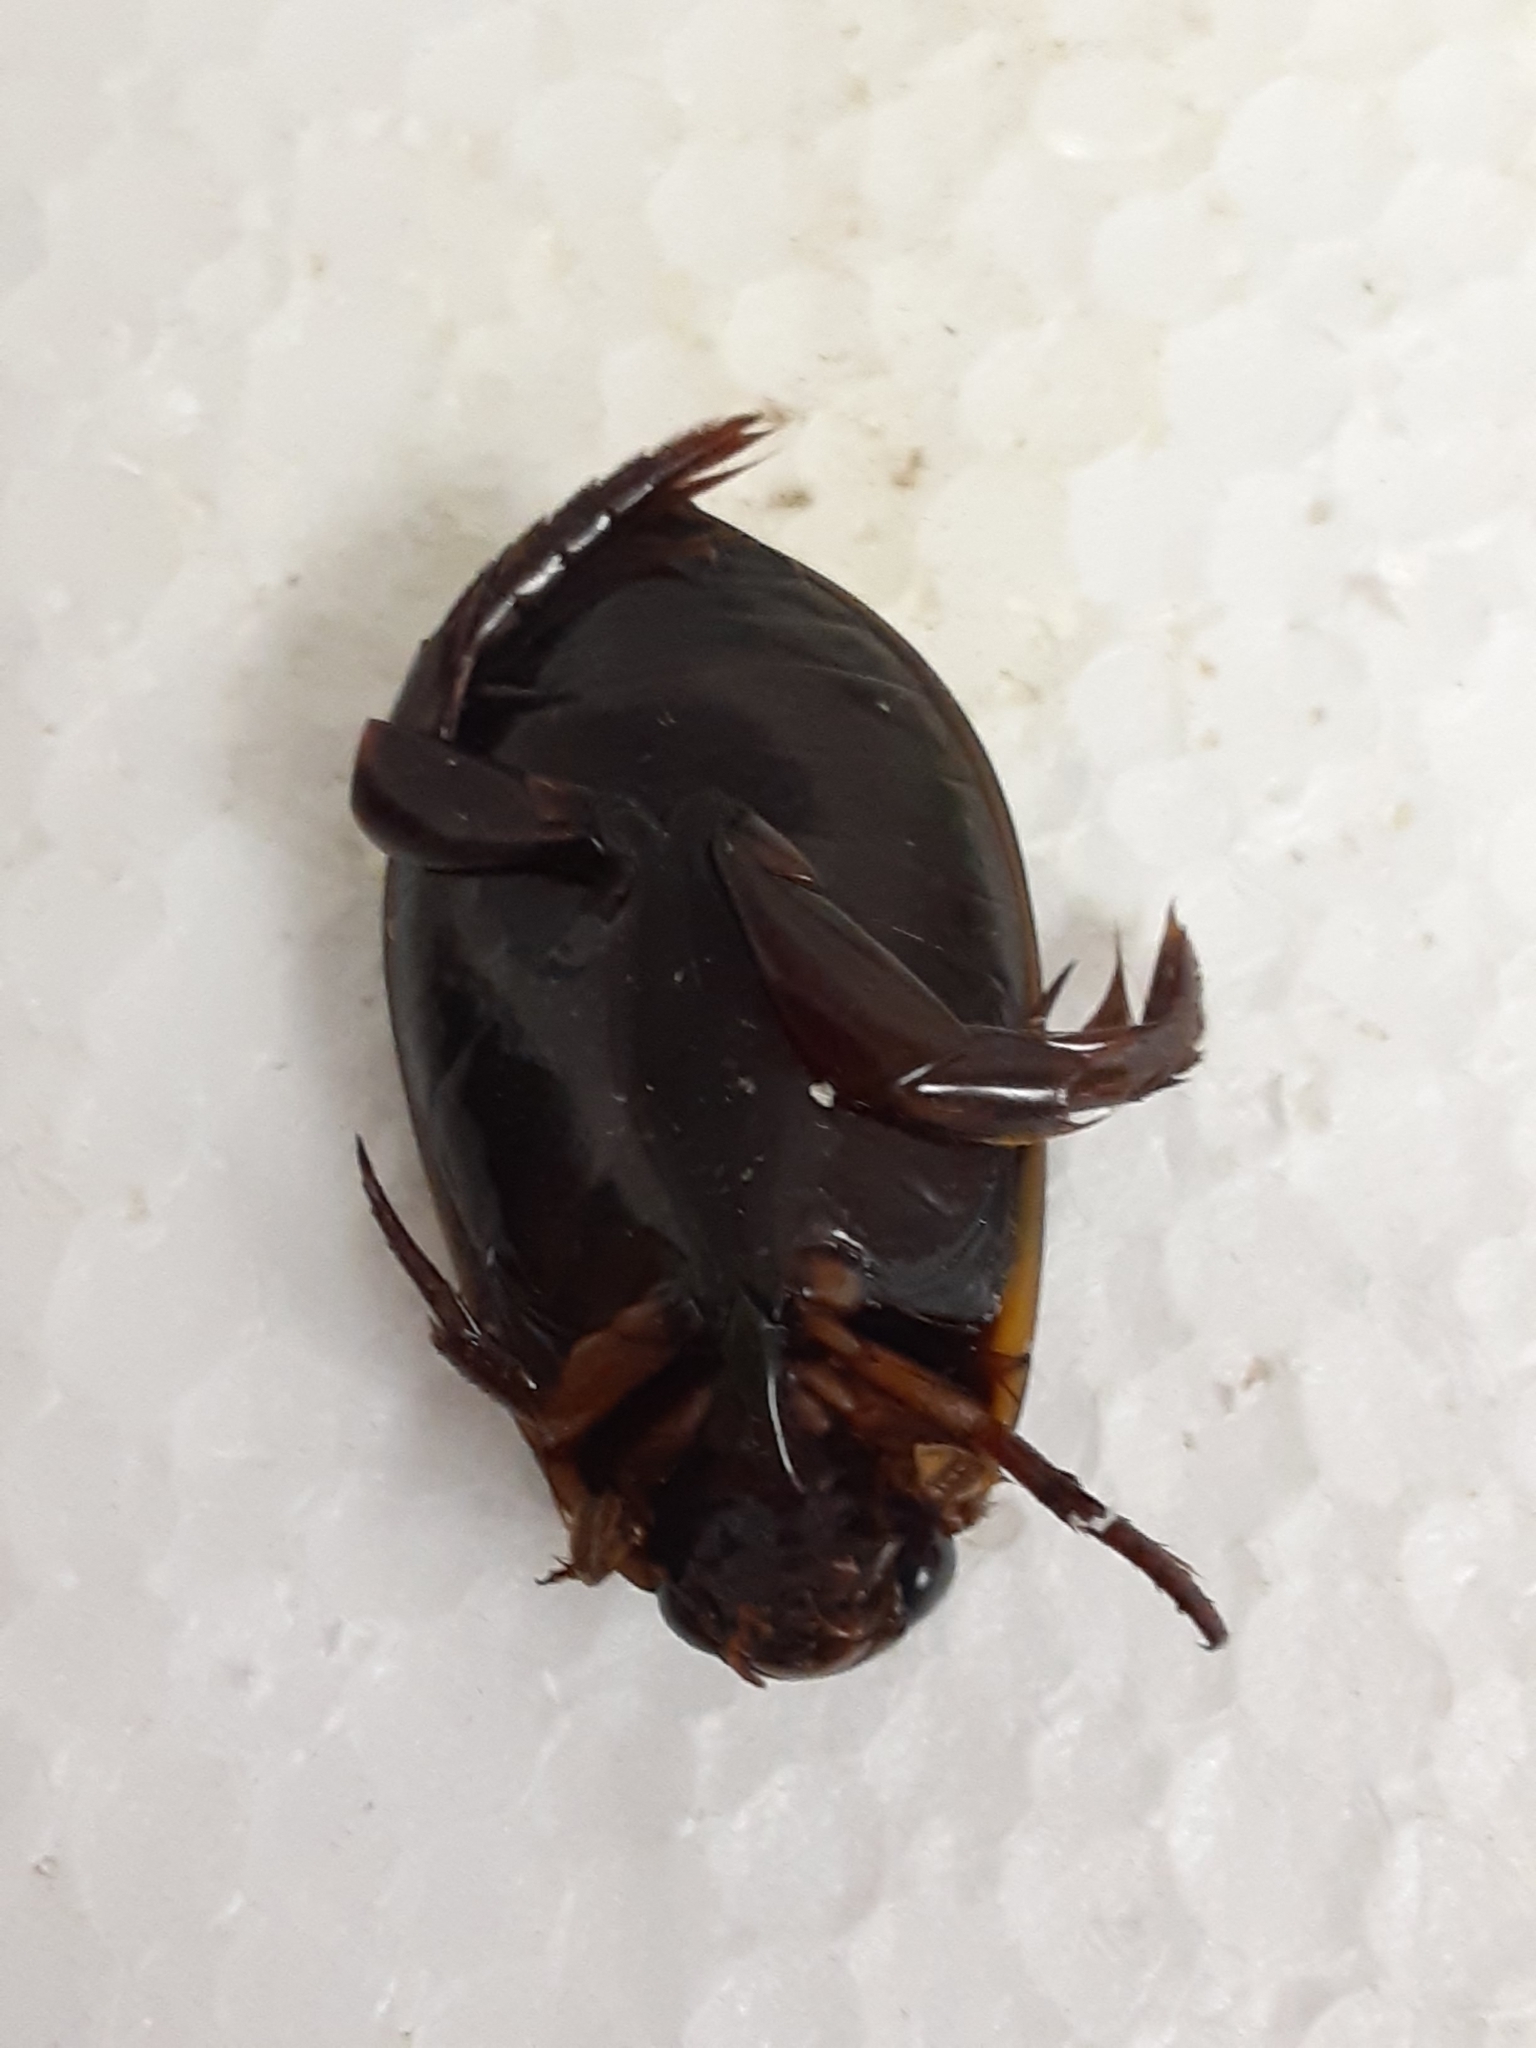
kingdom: Animalia
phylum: Arthropoda
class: Insecta
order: Coleoptera
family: Dytiscidae
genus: Cybister
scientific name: Cybister fimbriolatus
